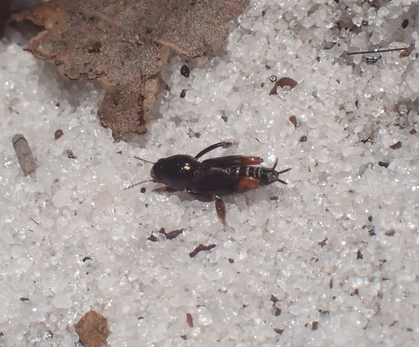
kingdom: Animalia
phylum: Arthropoda
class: Insecta
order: Orthoptera
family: Tridactylidae
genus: Neotridactylus
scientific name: Neotridactylus archboldi
